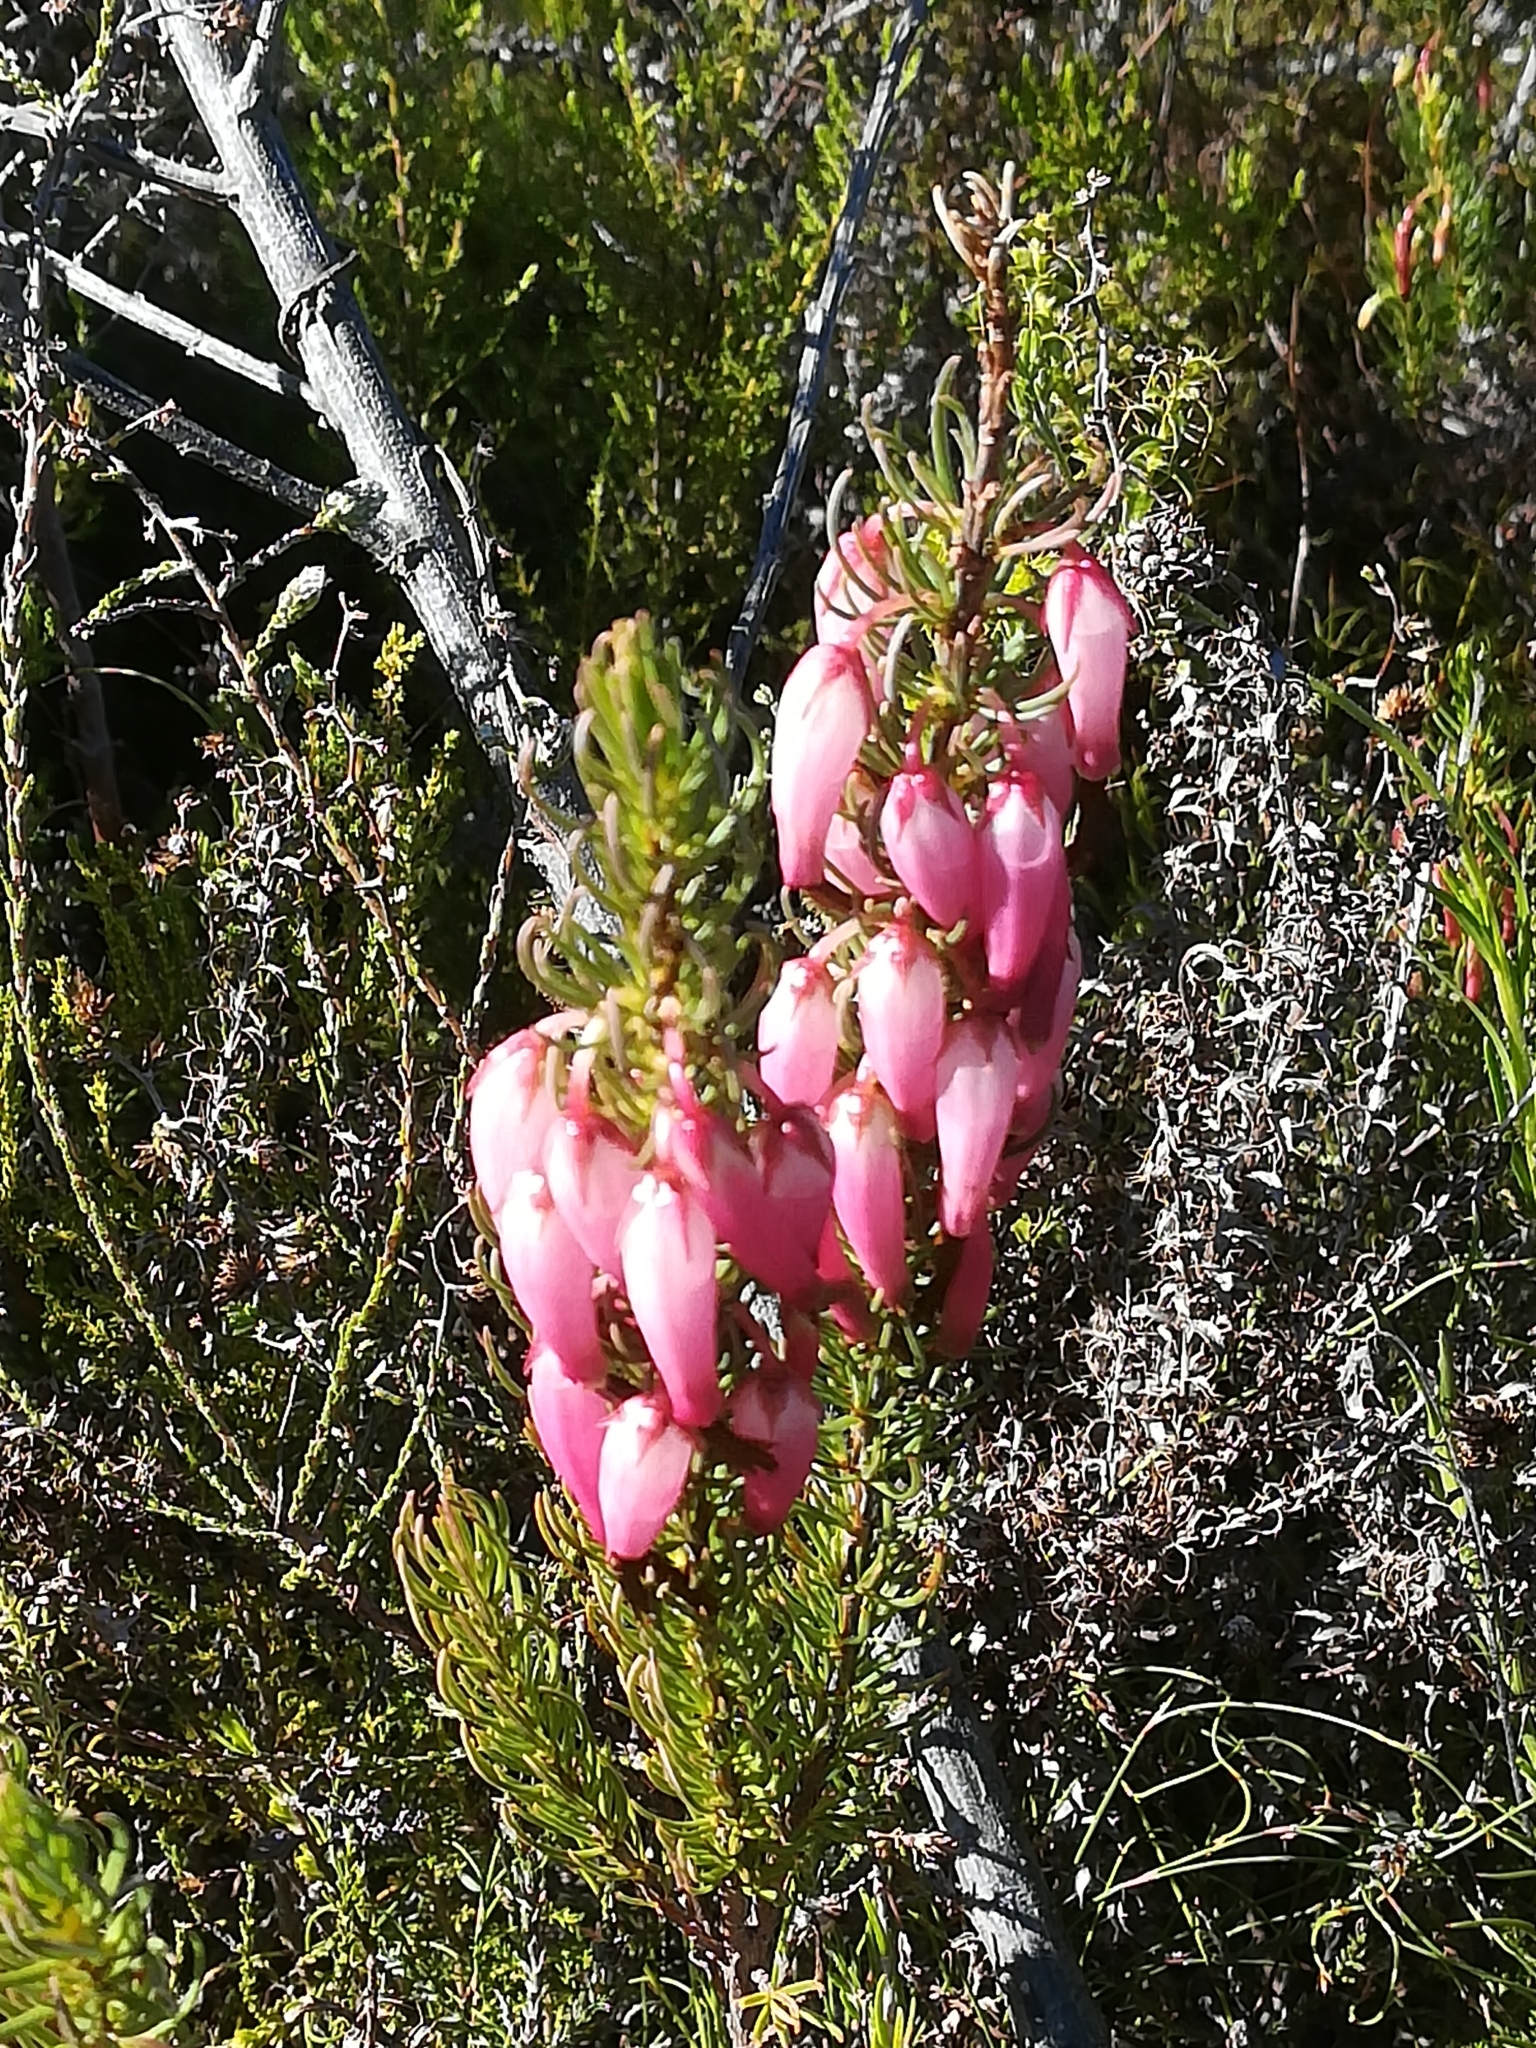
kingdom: Plantae
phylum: Tracheophyta
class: Magnoliopsida
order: Ericales
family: Ericaceae
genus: Erica
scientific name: Erica plukenetii
